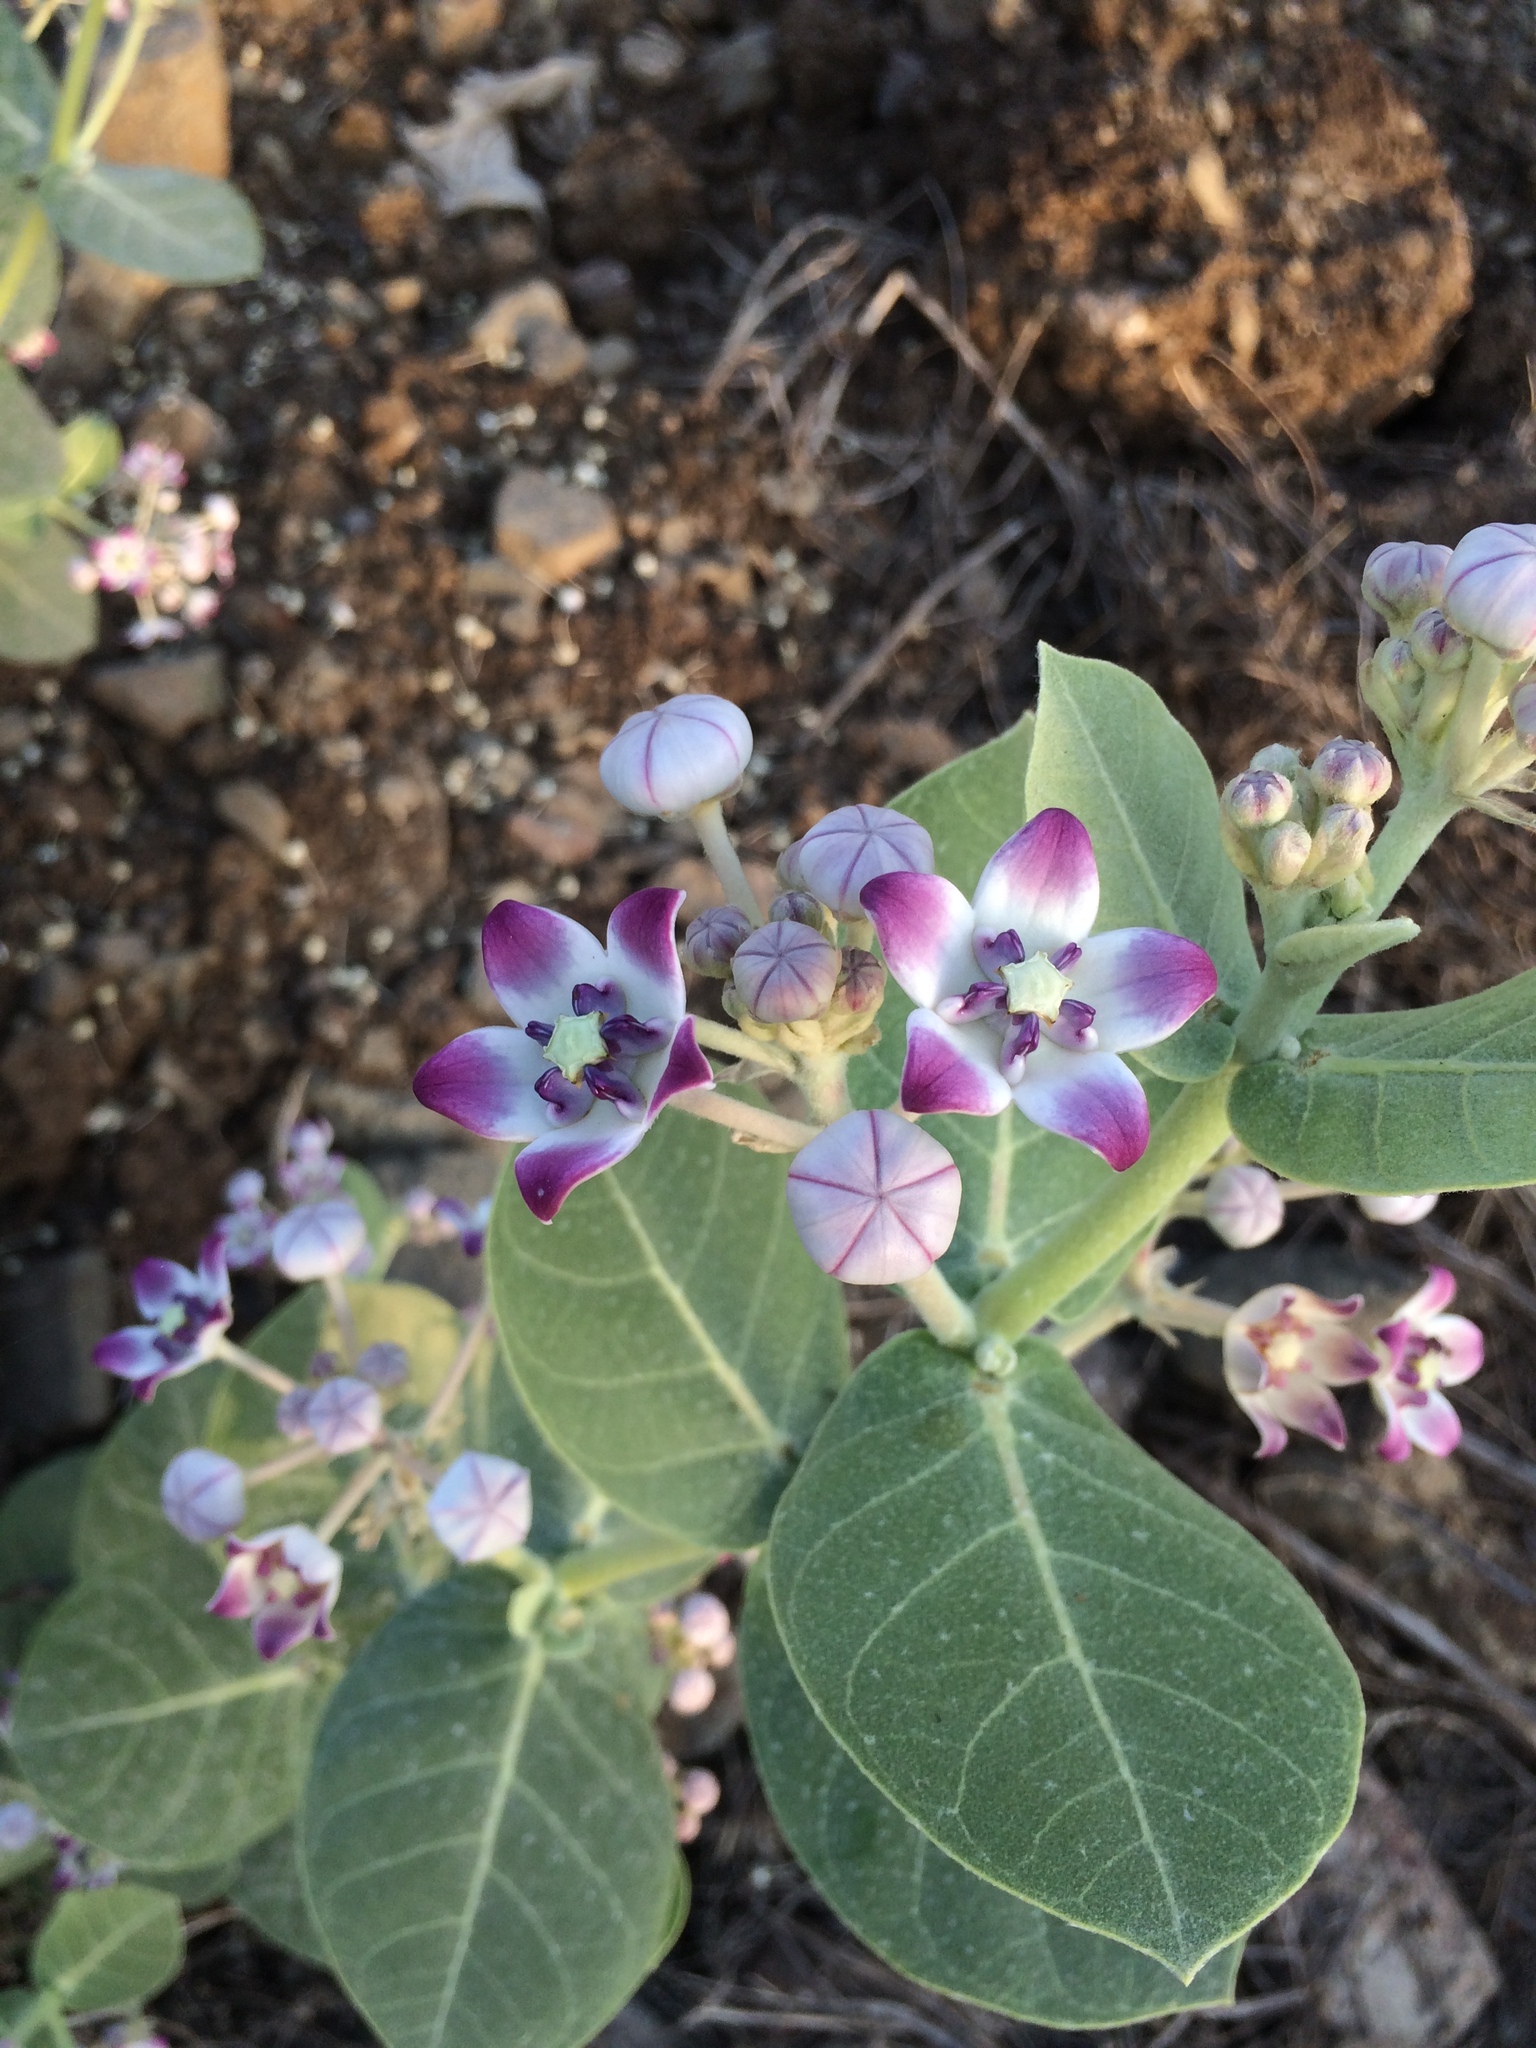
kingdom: Plantae
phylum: Tracheophyta
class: Magnoliopsida
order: Gentianales
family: Apocynaceae
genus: Calotropis
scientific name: Calotropis procera
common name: Roostertree
